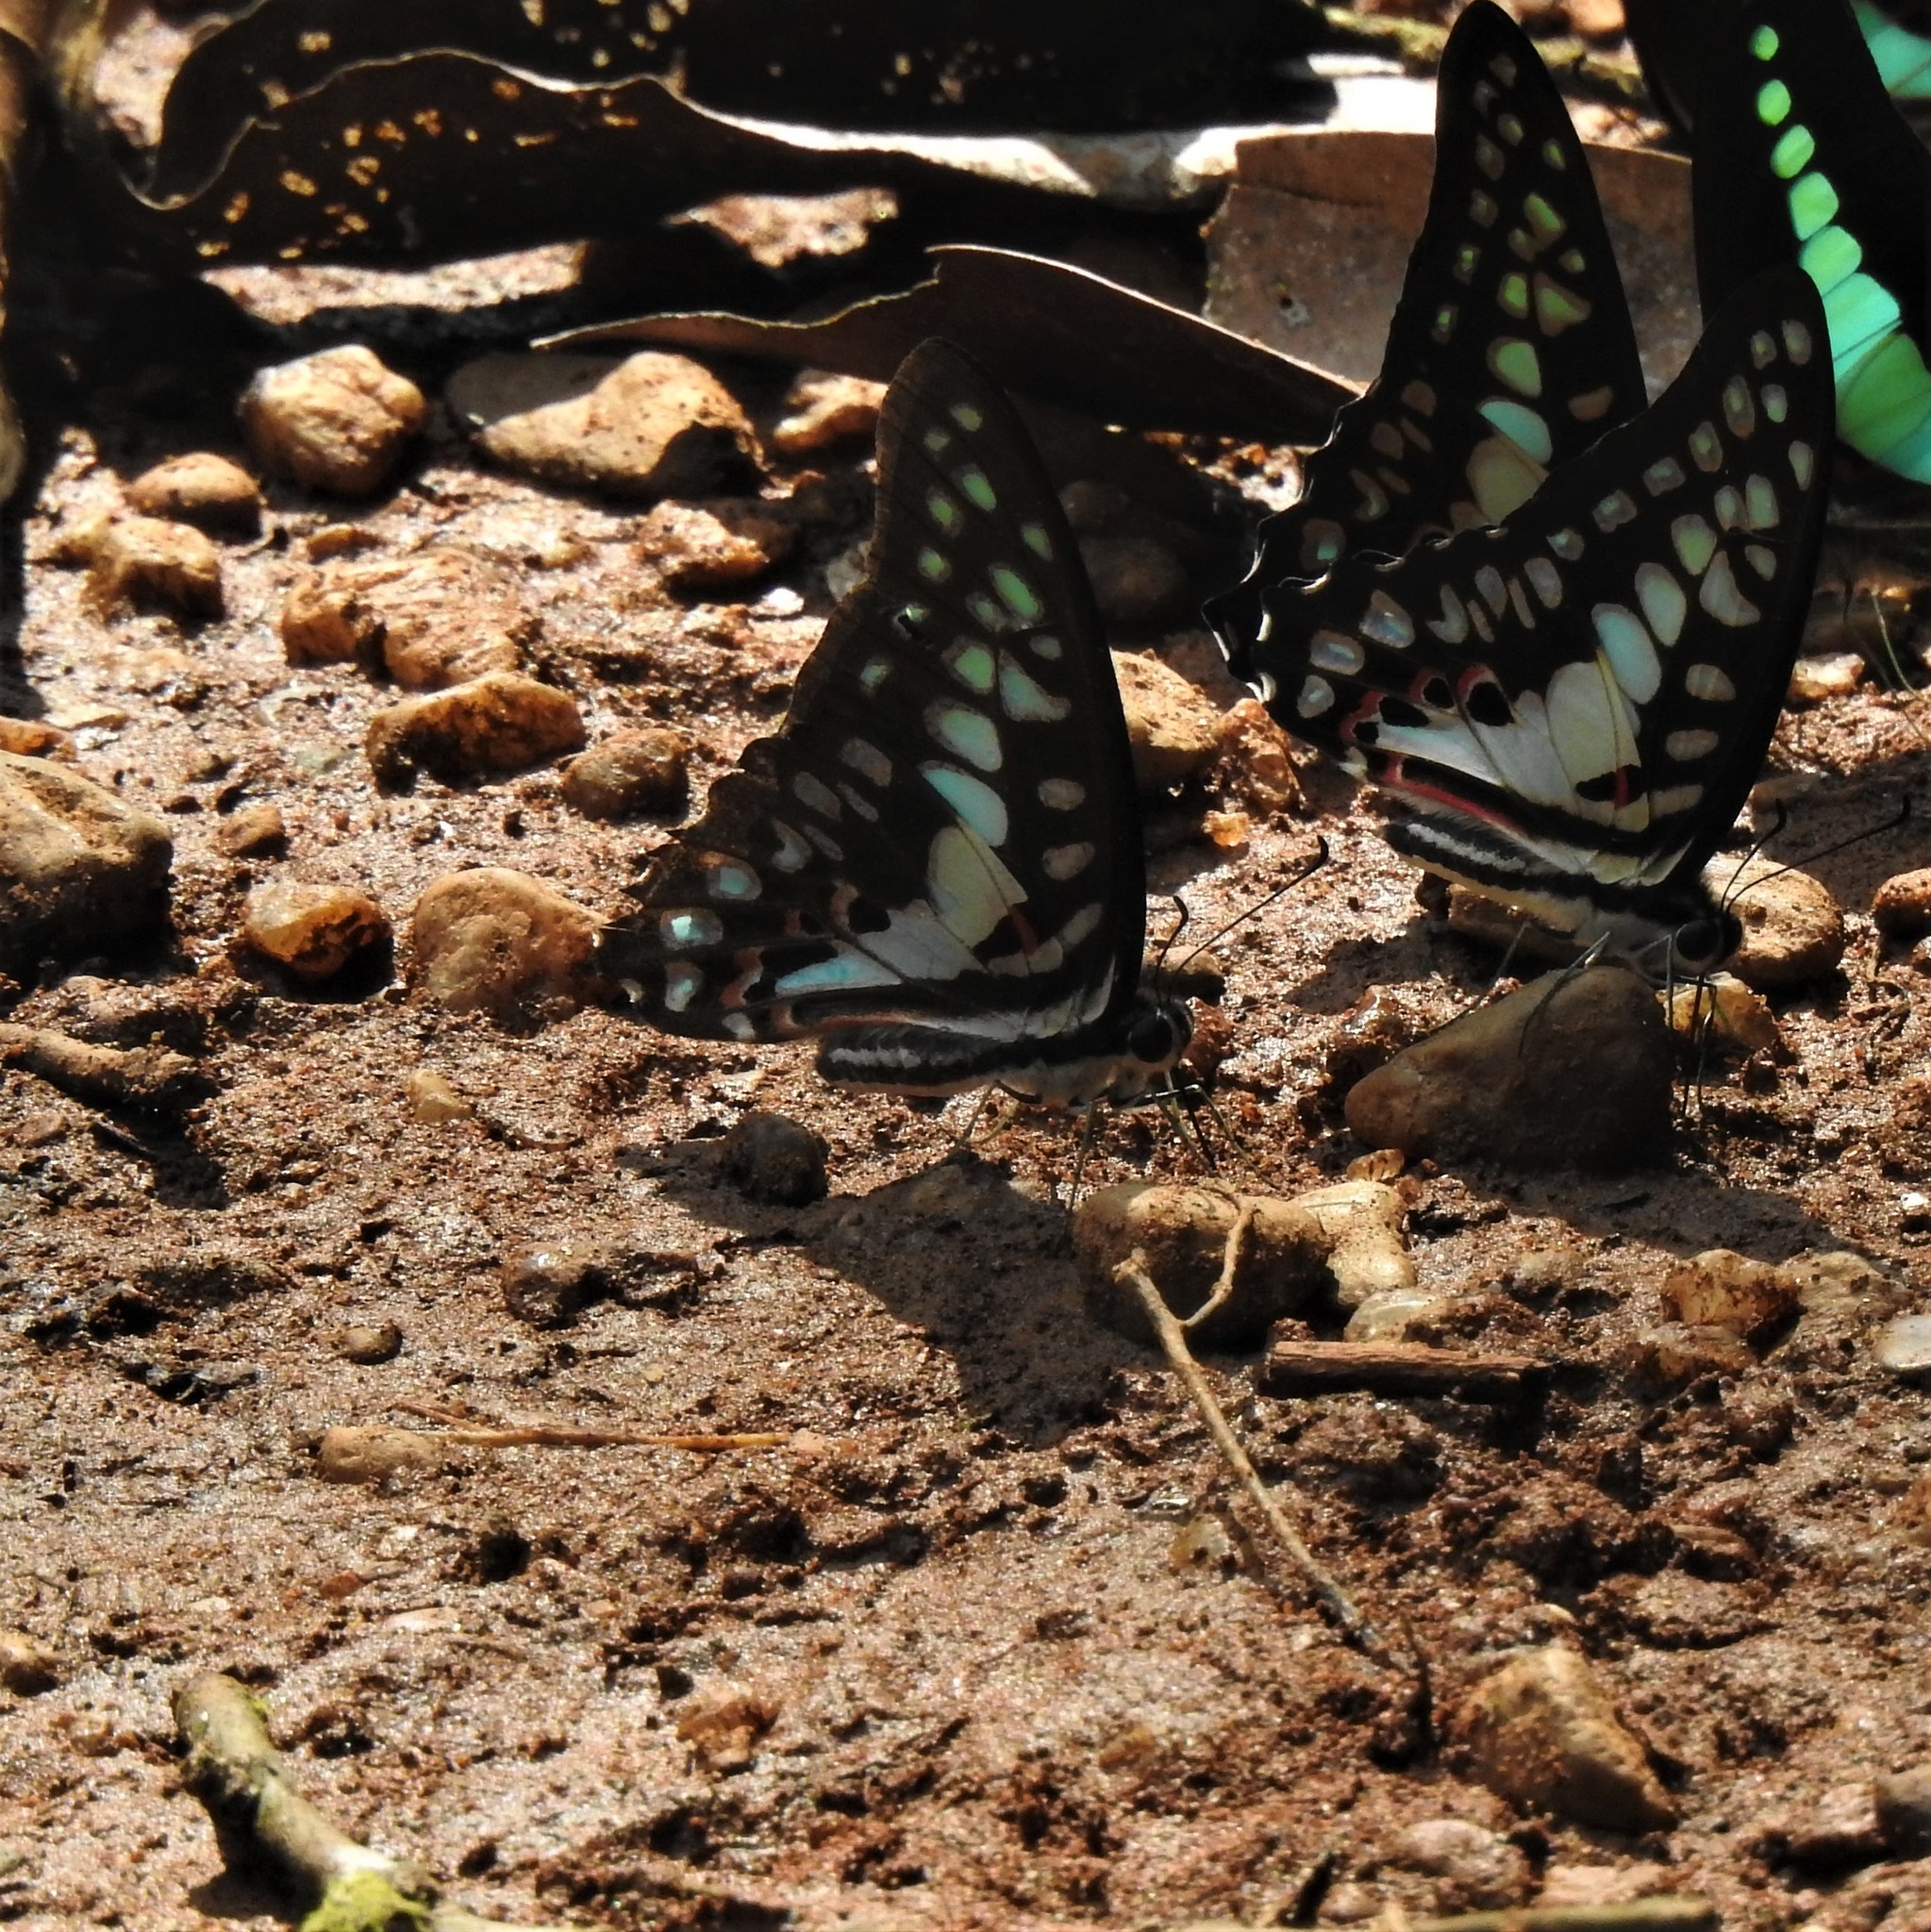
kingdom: Animalia
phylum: Arthropoda
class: Insecta
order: Lepidoptera
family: Papilionidae
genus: Graphium
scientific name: Graphium doson
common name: Common jay
